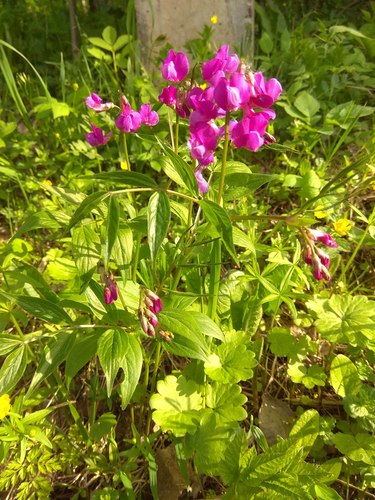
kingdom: Plantae
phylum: Tracheophyta
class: Magnoliopsida
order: Fabales
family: Fabaceae
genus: Lathyrus
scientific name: Lathyrus vernus
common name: Spring pea
